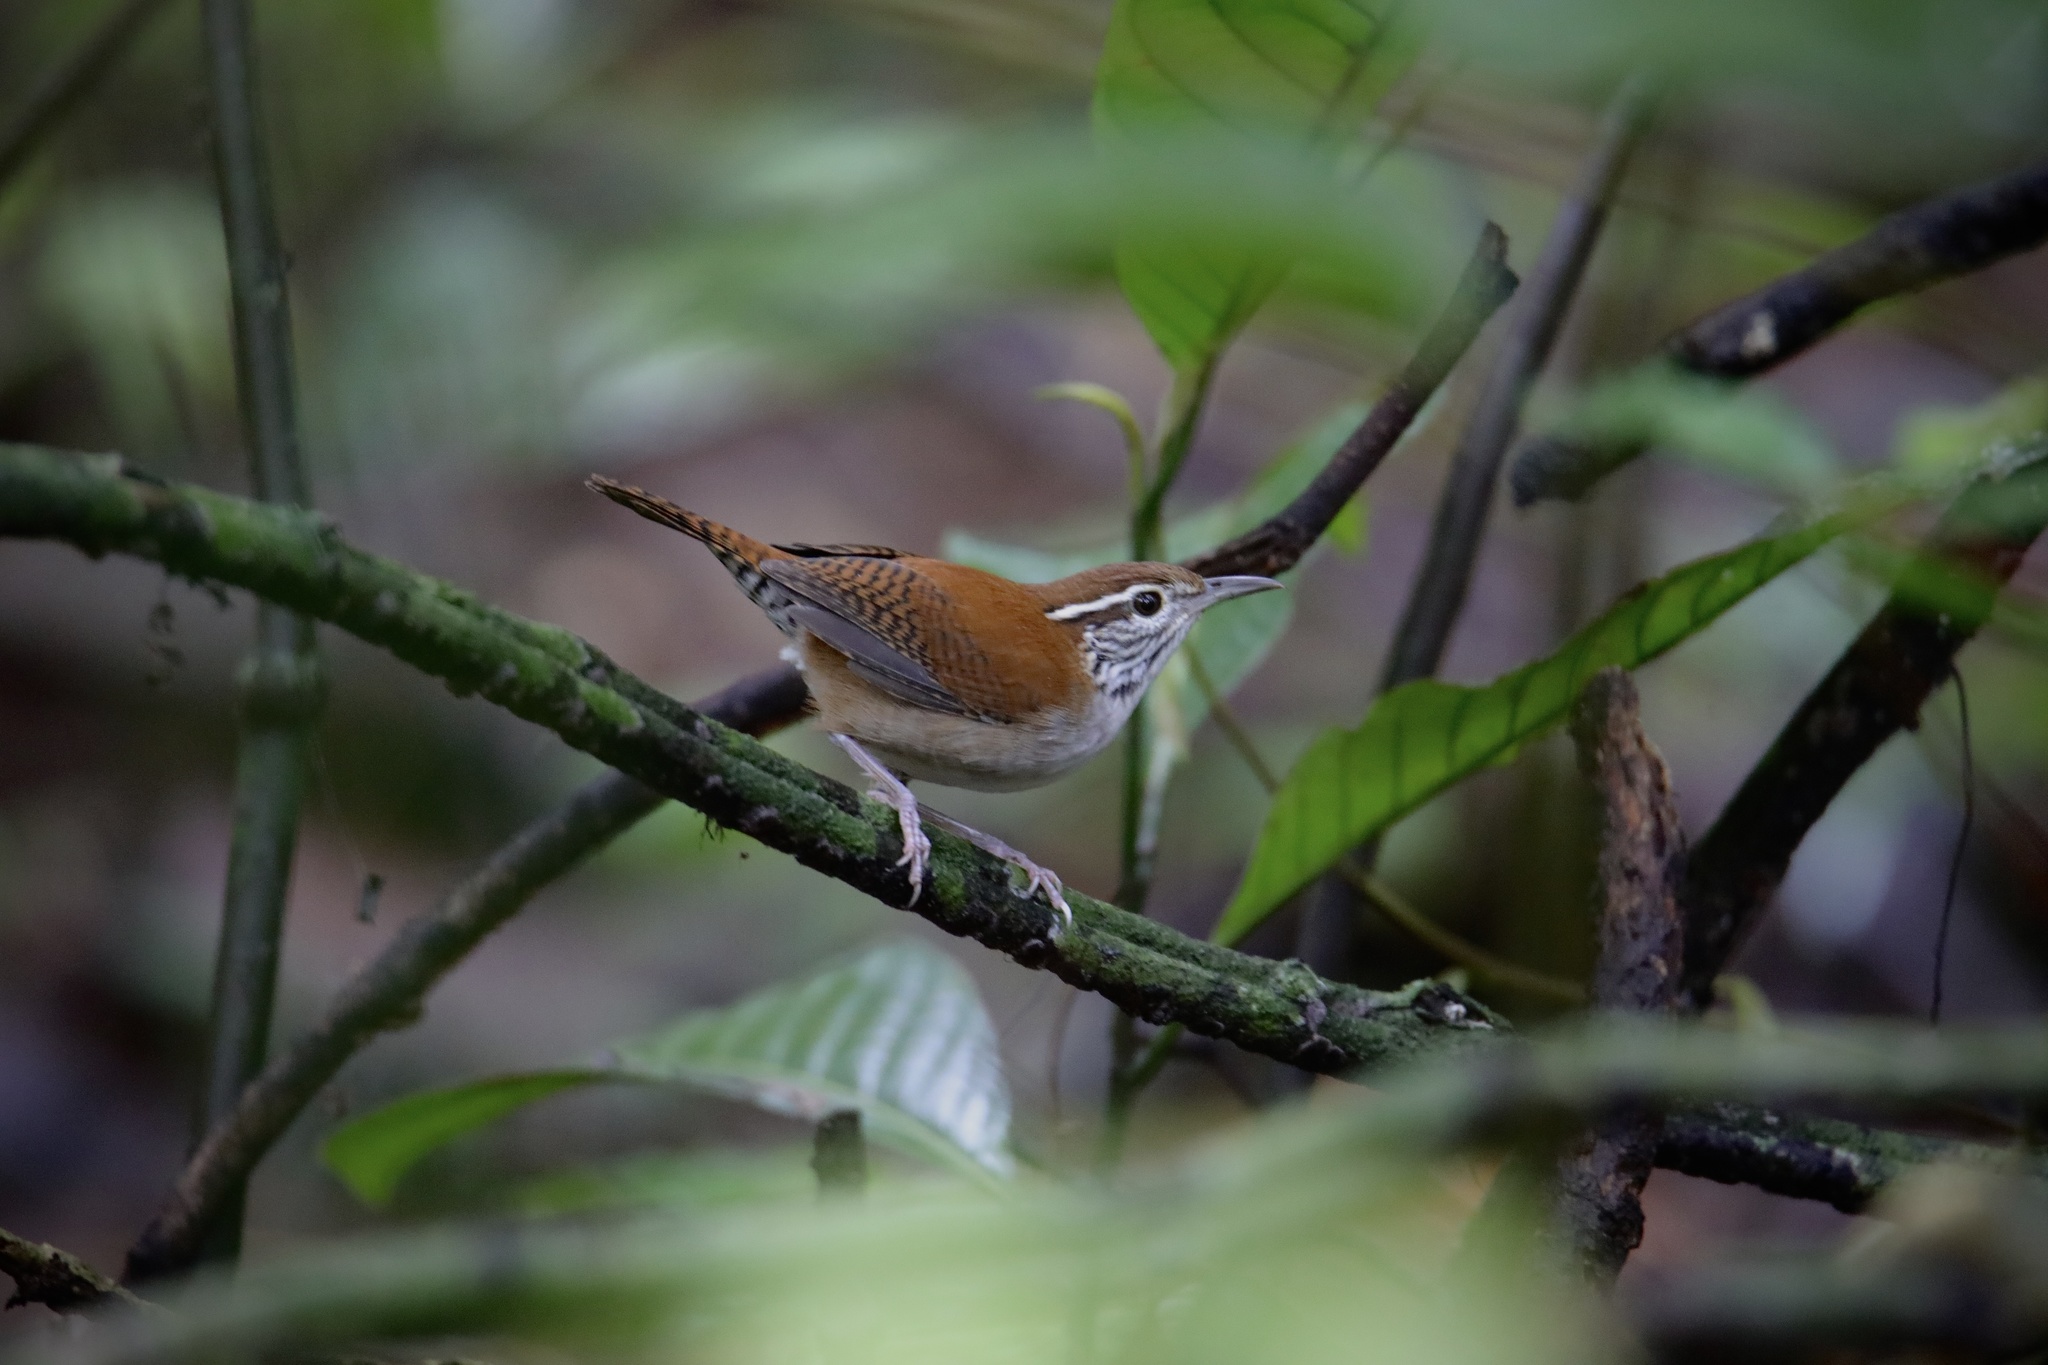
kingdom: Animalia
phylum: Chordata
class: Aves
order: Passeriformes
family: Troglodytidae
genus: Thryophilus
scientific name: Thryophilus rufalbus
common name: Rufous-and-white wren
